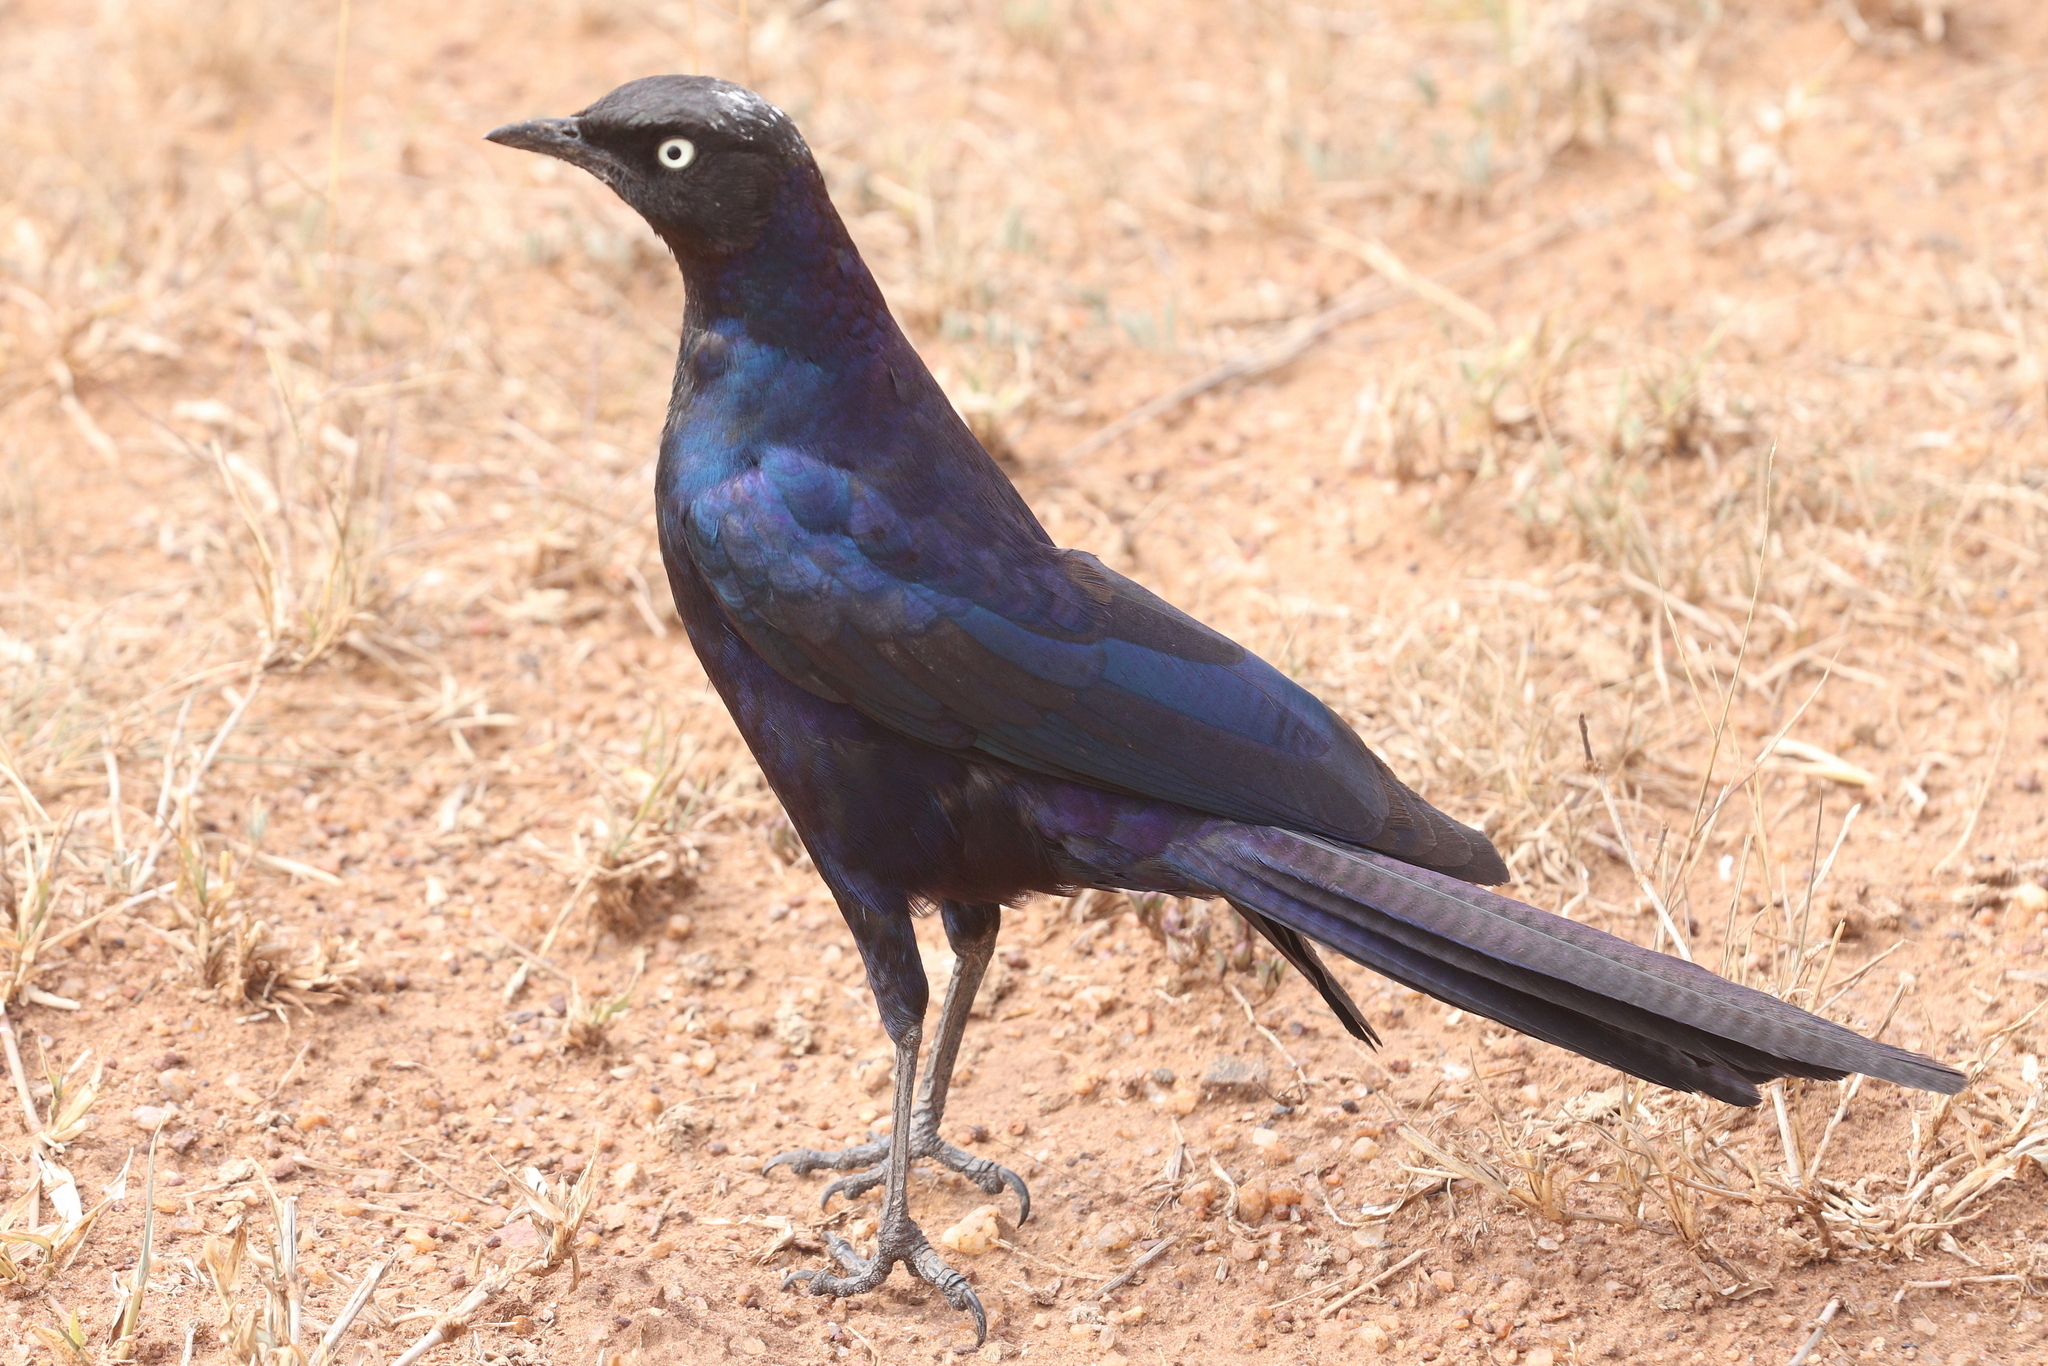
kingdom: Animalia
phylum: Chordata
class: Aves
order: Passeriformes
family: Sturnidae
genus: Lamprotornis
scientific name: Lamprotornis purpuroptera
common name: Rüppell's starling
